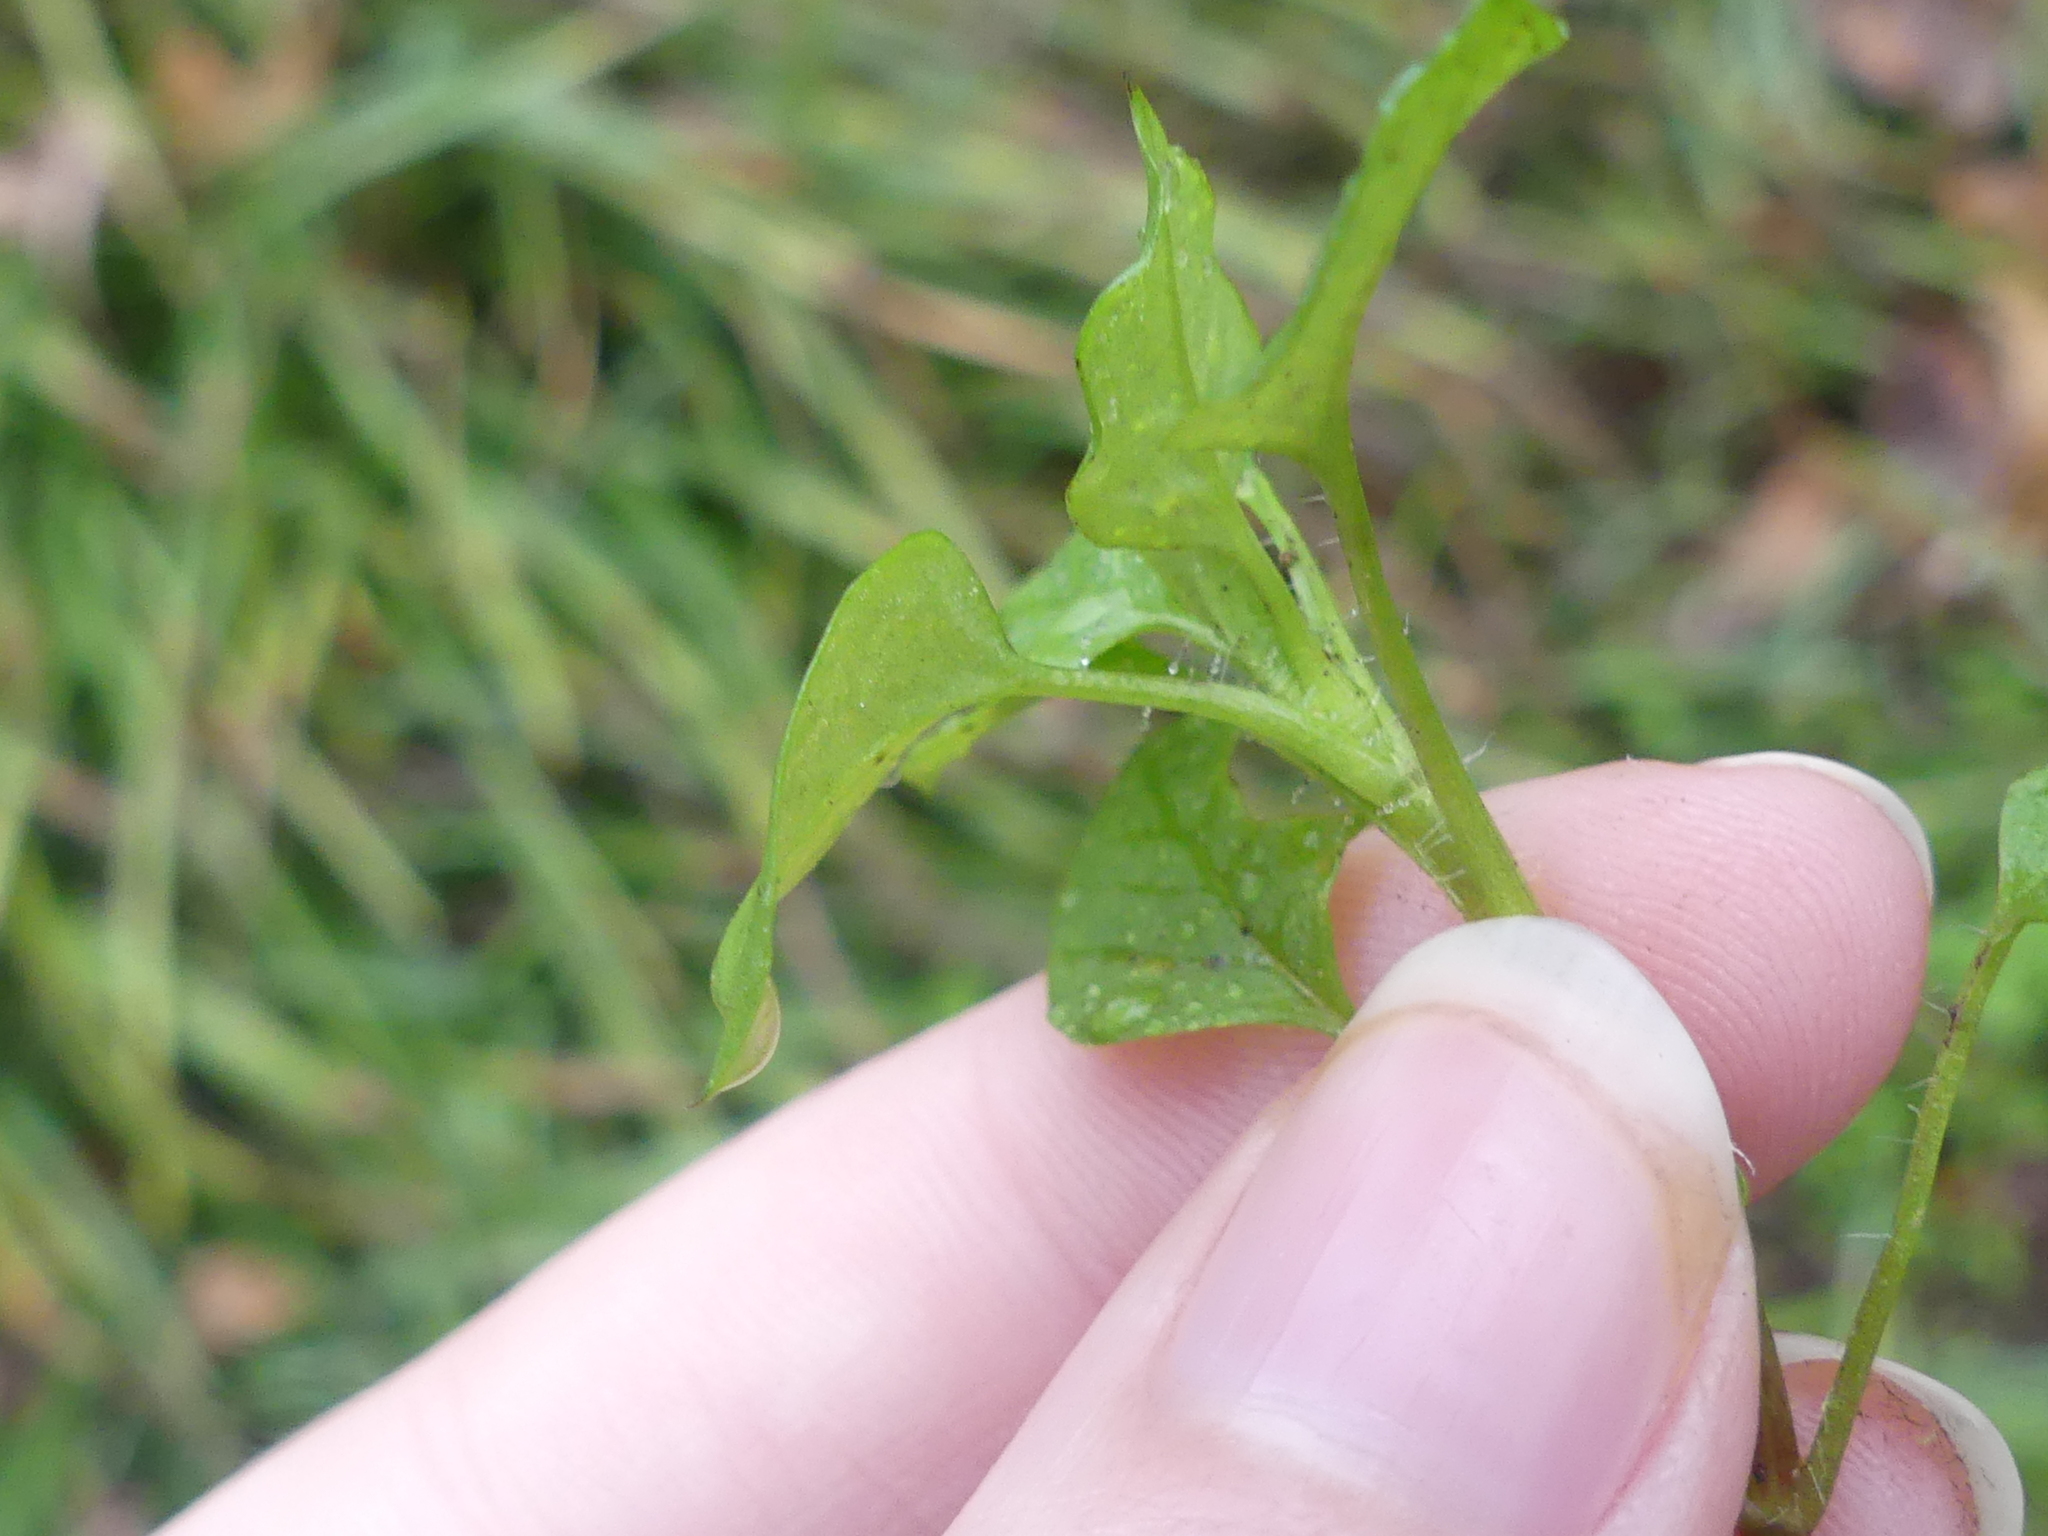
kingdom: Plantae
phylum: Tracheophyta
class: Magnoliopsida
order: Caryophyllales
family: Caryophyllaceae
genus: Stellaria
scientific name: Stellaria media
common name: Common chickweed
